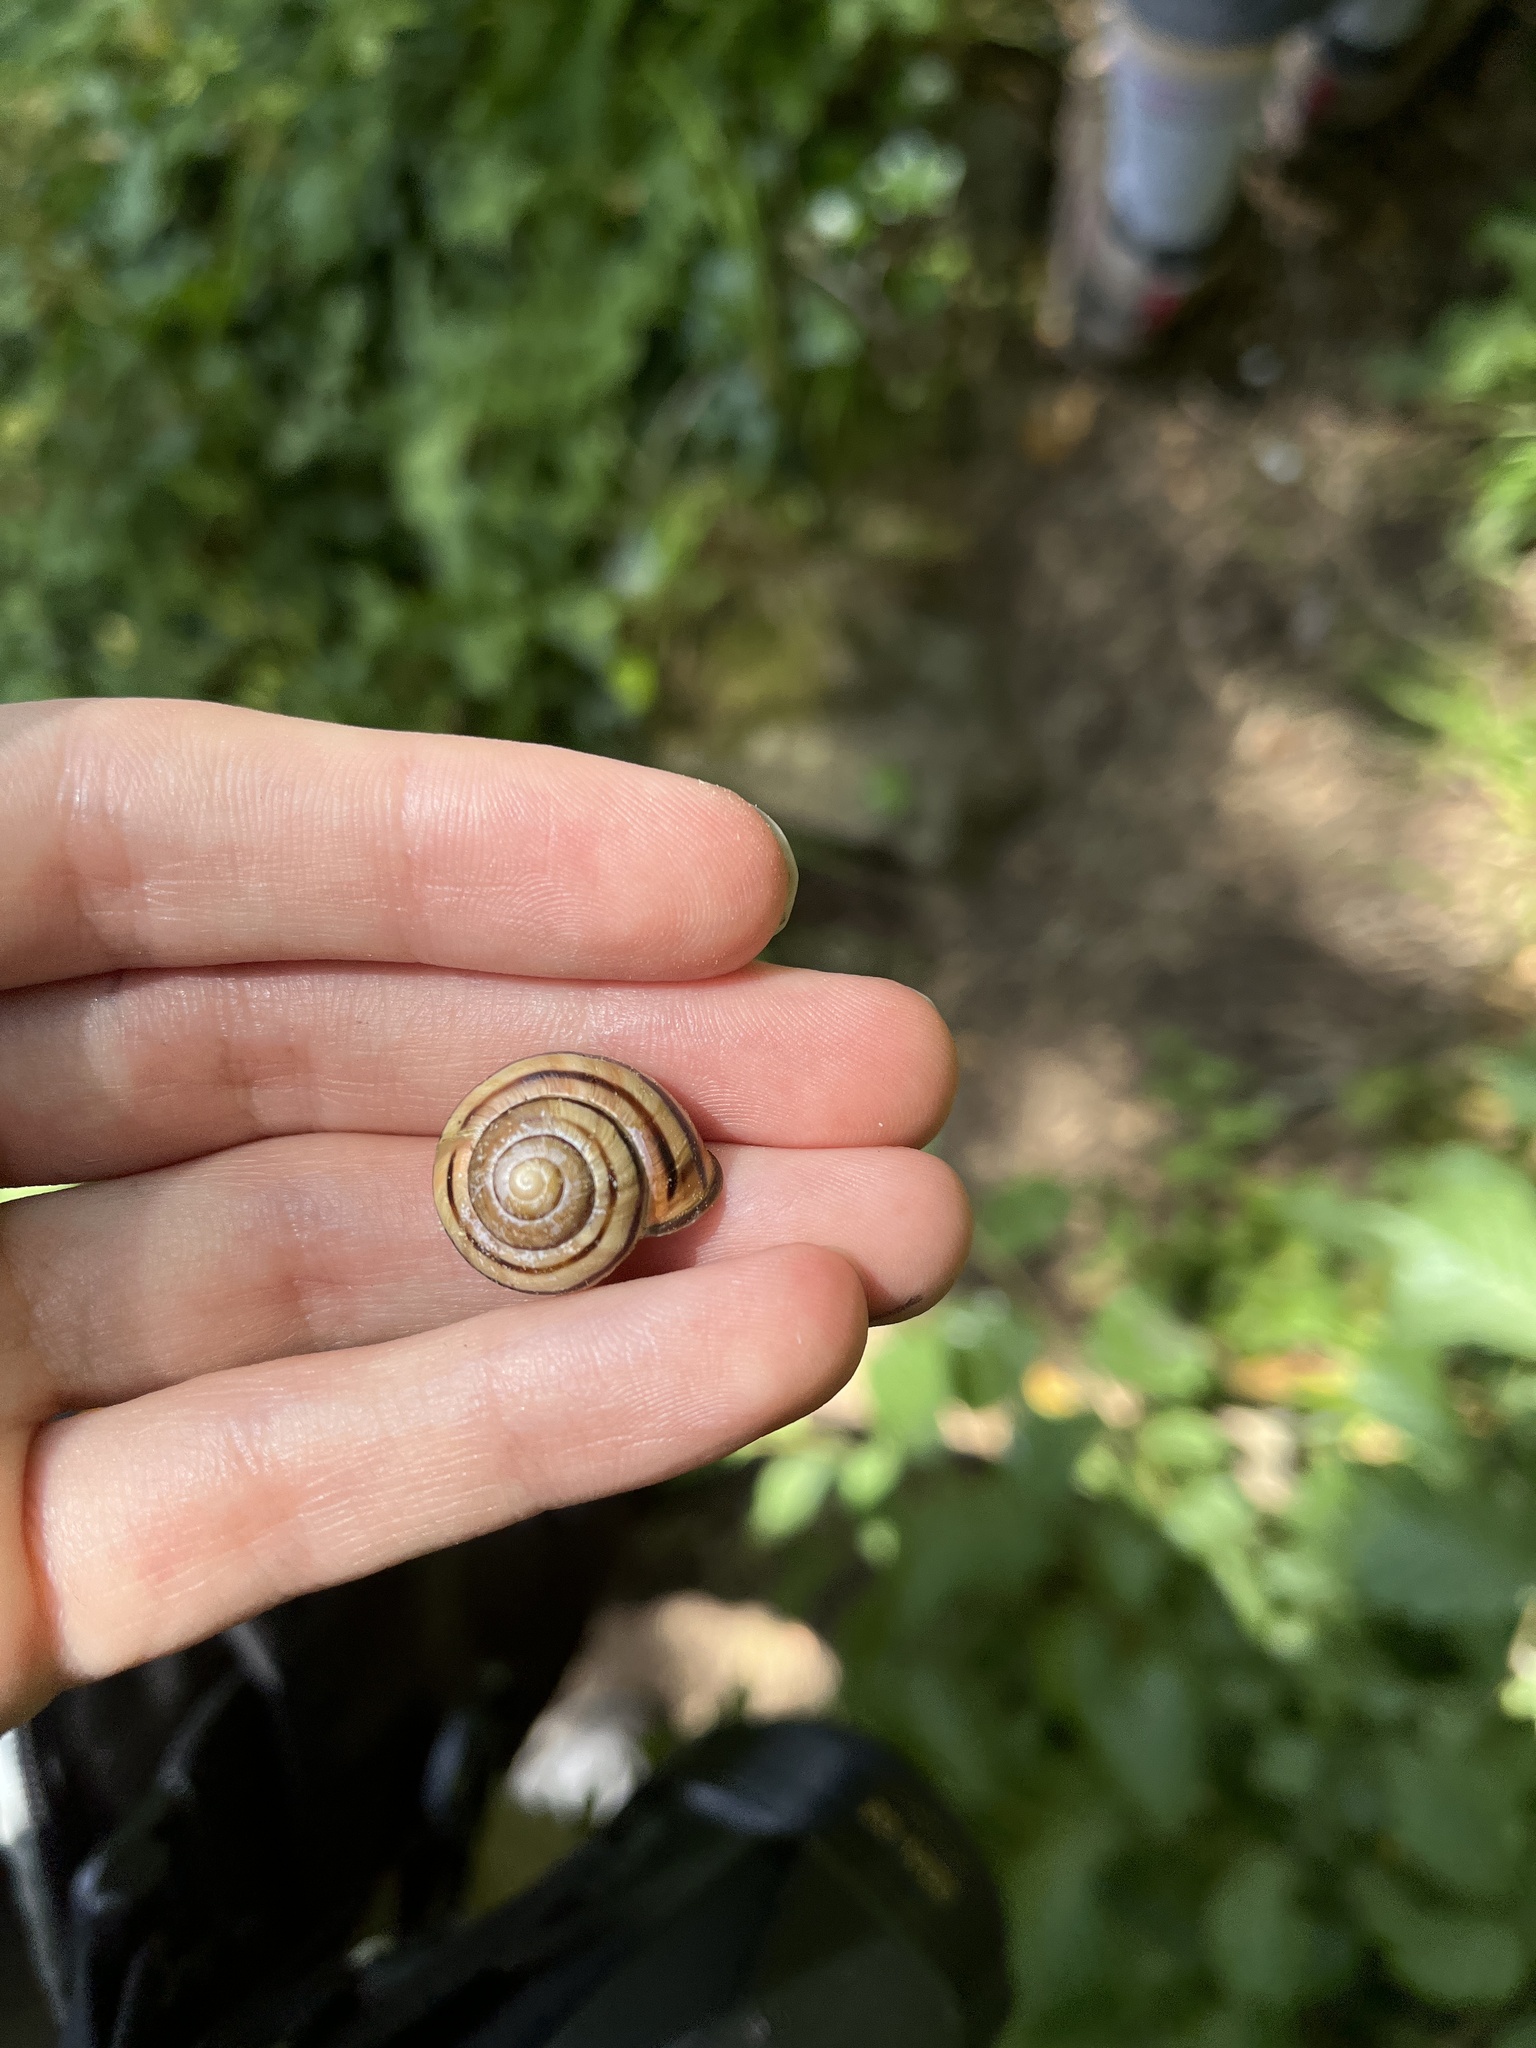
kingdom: Animalia
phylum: Mollusca
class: Gastropoda
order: Stylommatophora
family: Helicidae
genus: Cepaea
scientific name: Cepaea nemoralis
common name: Grovesnail
